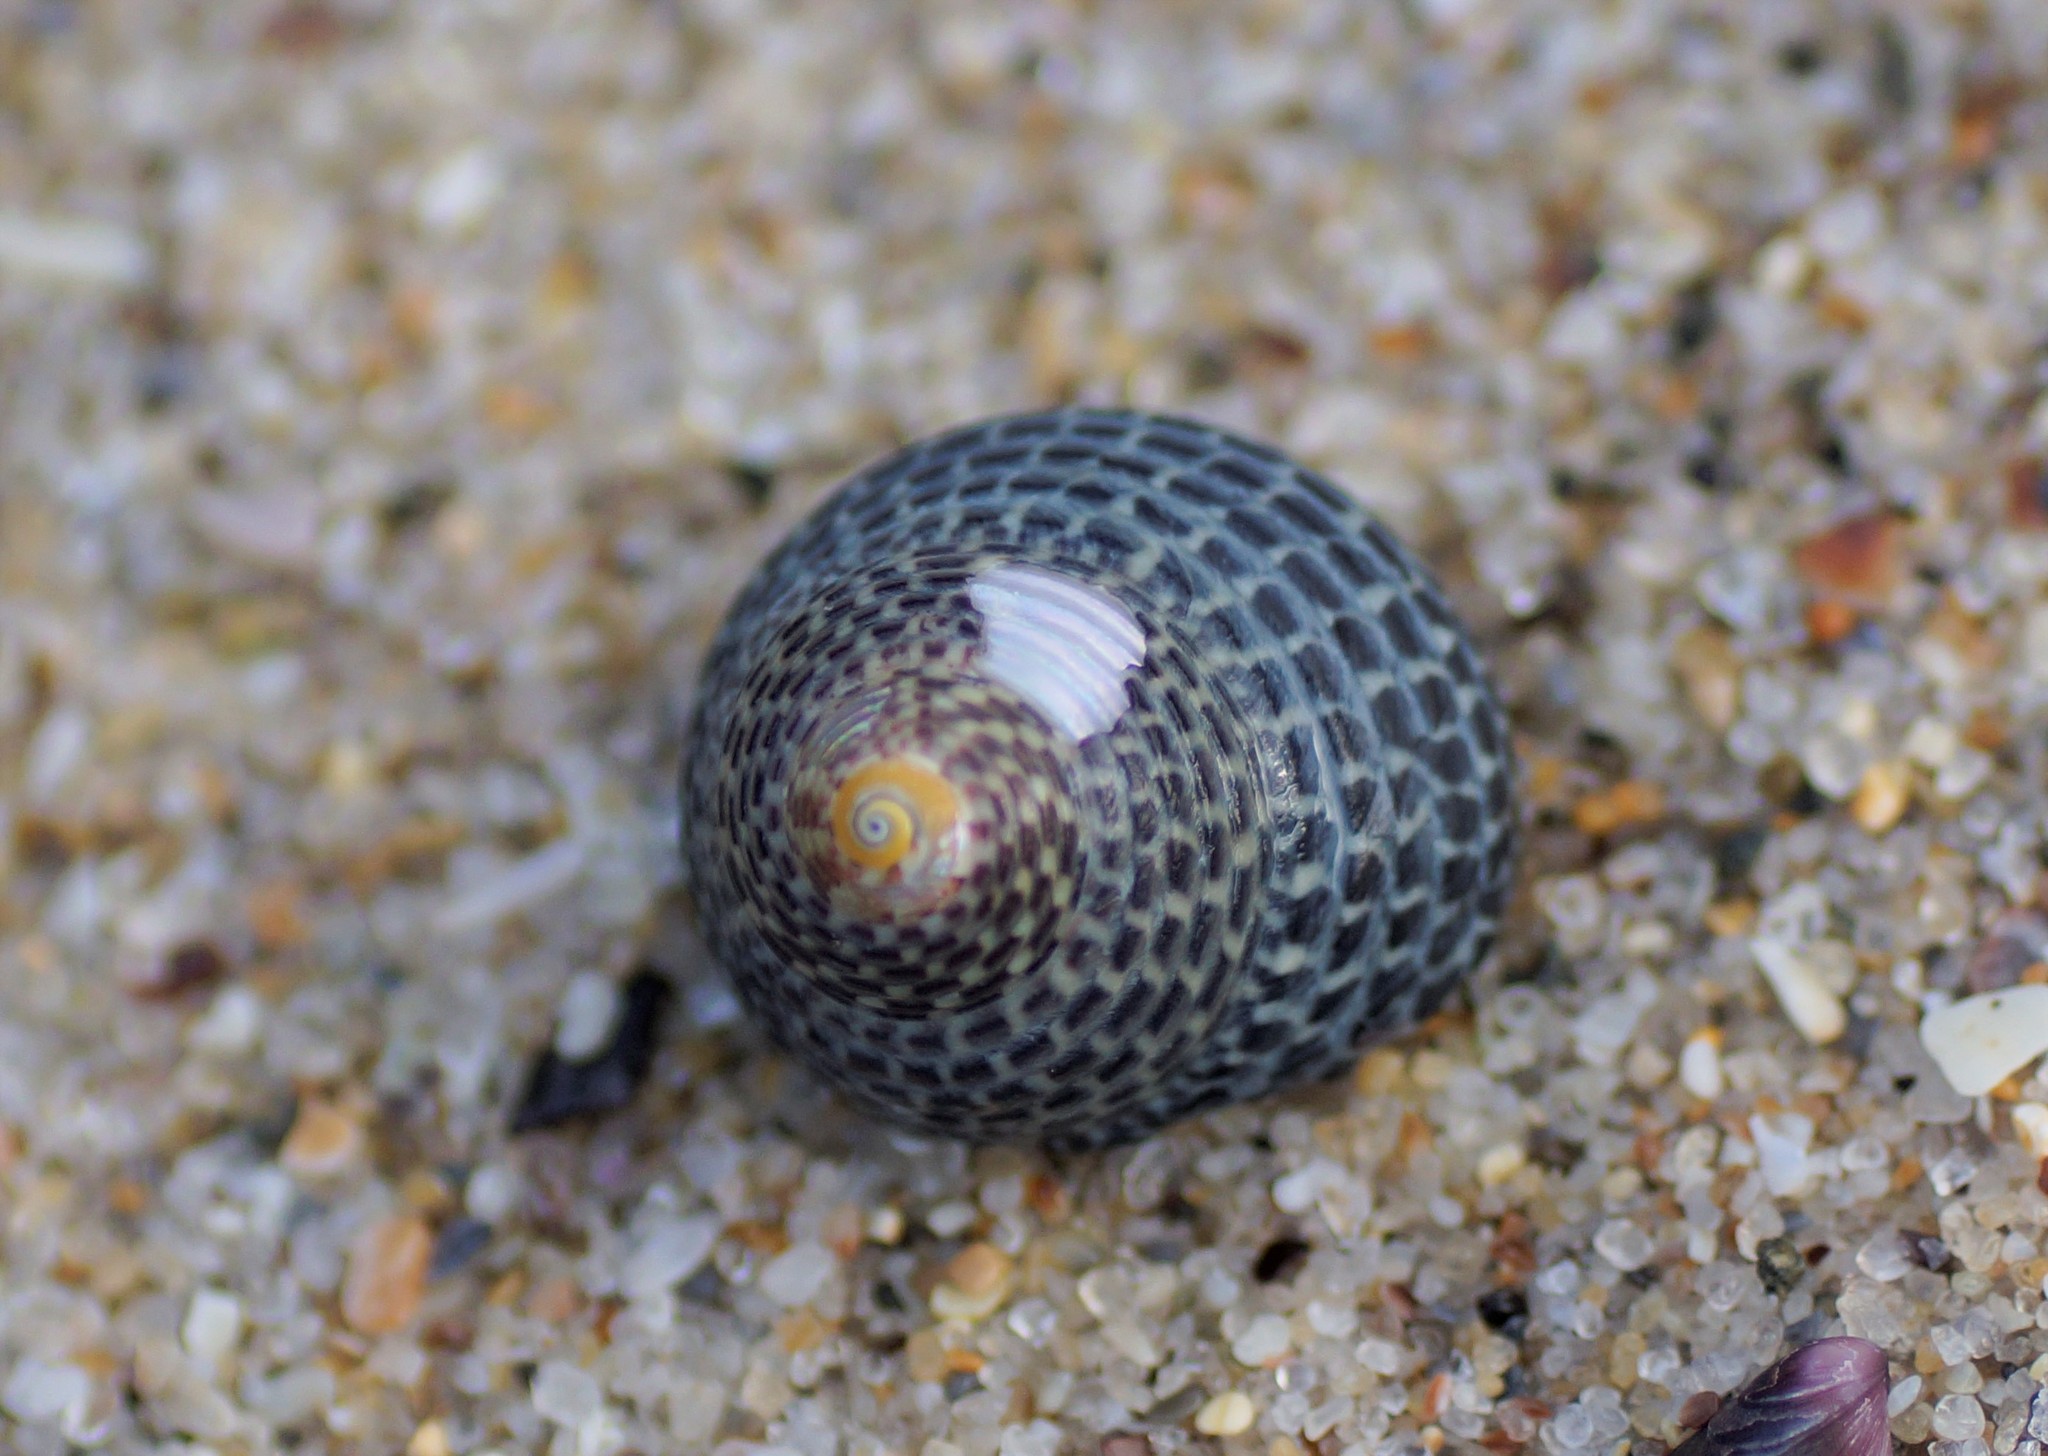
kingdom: Animalia
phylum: Mollusca
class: Gastropoda
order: Trochida
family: Trochidae
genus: Chlorodiloma
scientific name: Chlorodiloma adelaidae
